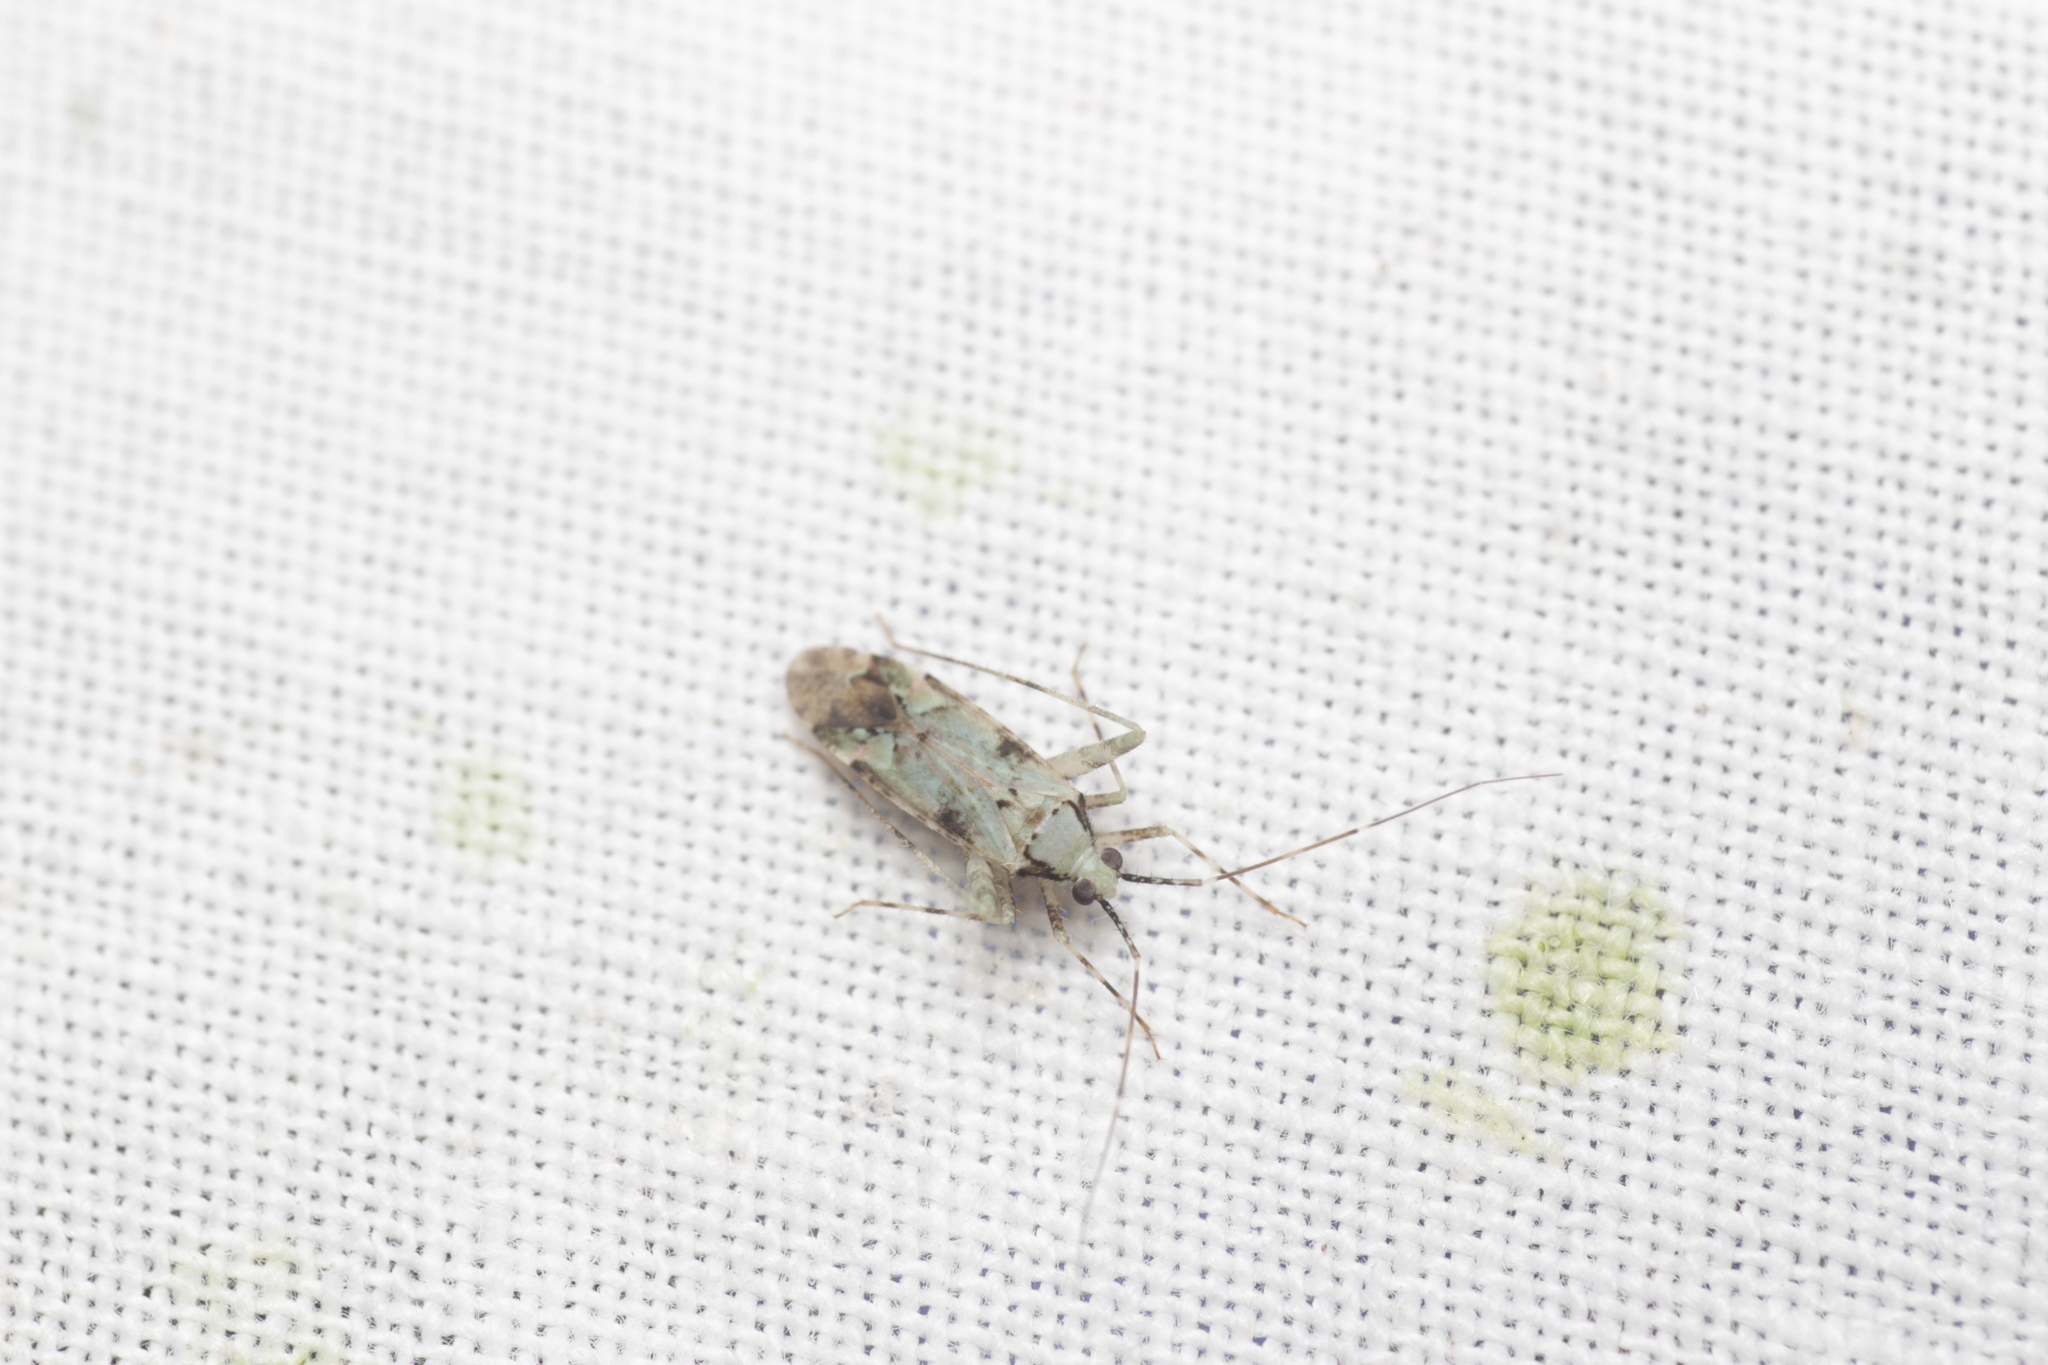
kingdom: Animalia
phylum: Arthropoda
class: Insecta
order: Hemiptera
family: Miridae
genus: Phytocoris
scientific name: Phytocoris tiliae
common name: Plant bug
